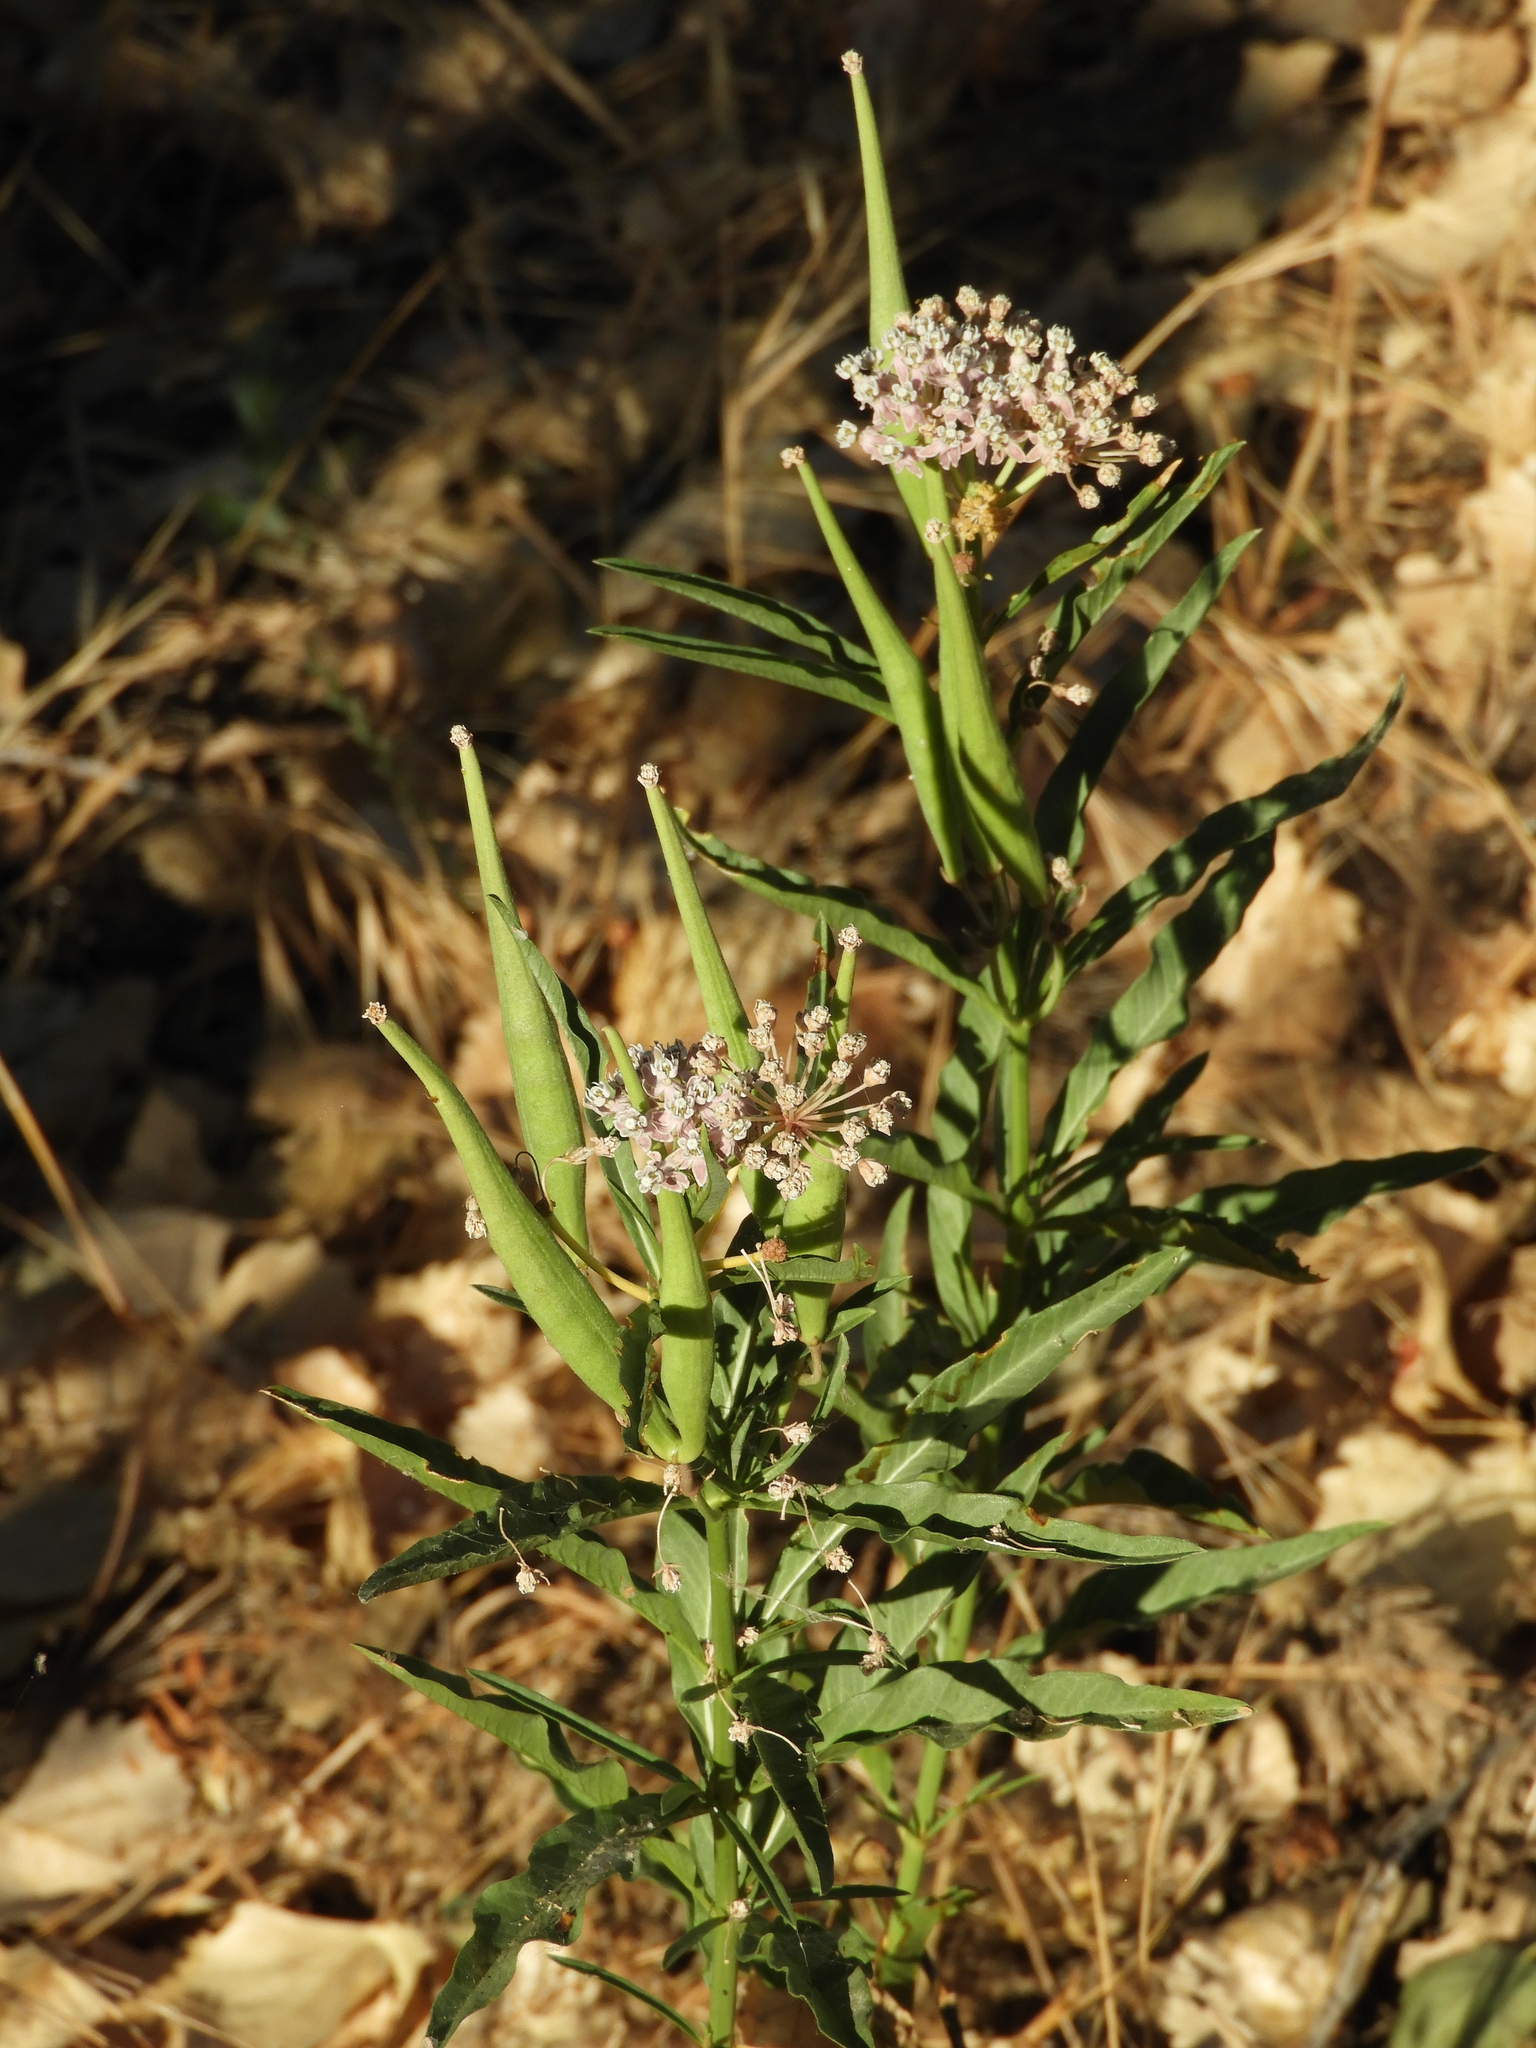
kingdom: Plantae
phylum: Tracheophyta
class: Magnoliopsida
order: Gentianales
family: Apocynaceae
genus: Asclepias
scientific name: Asclepias fascicularis
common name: Mexican milkweed
